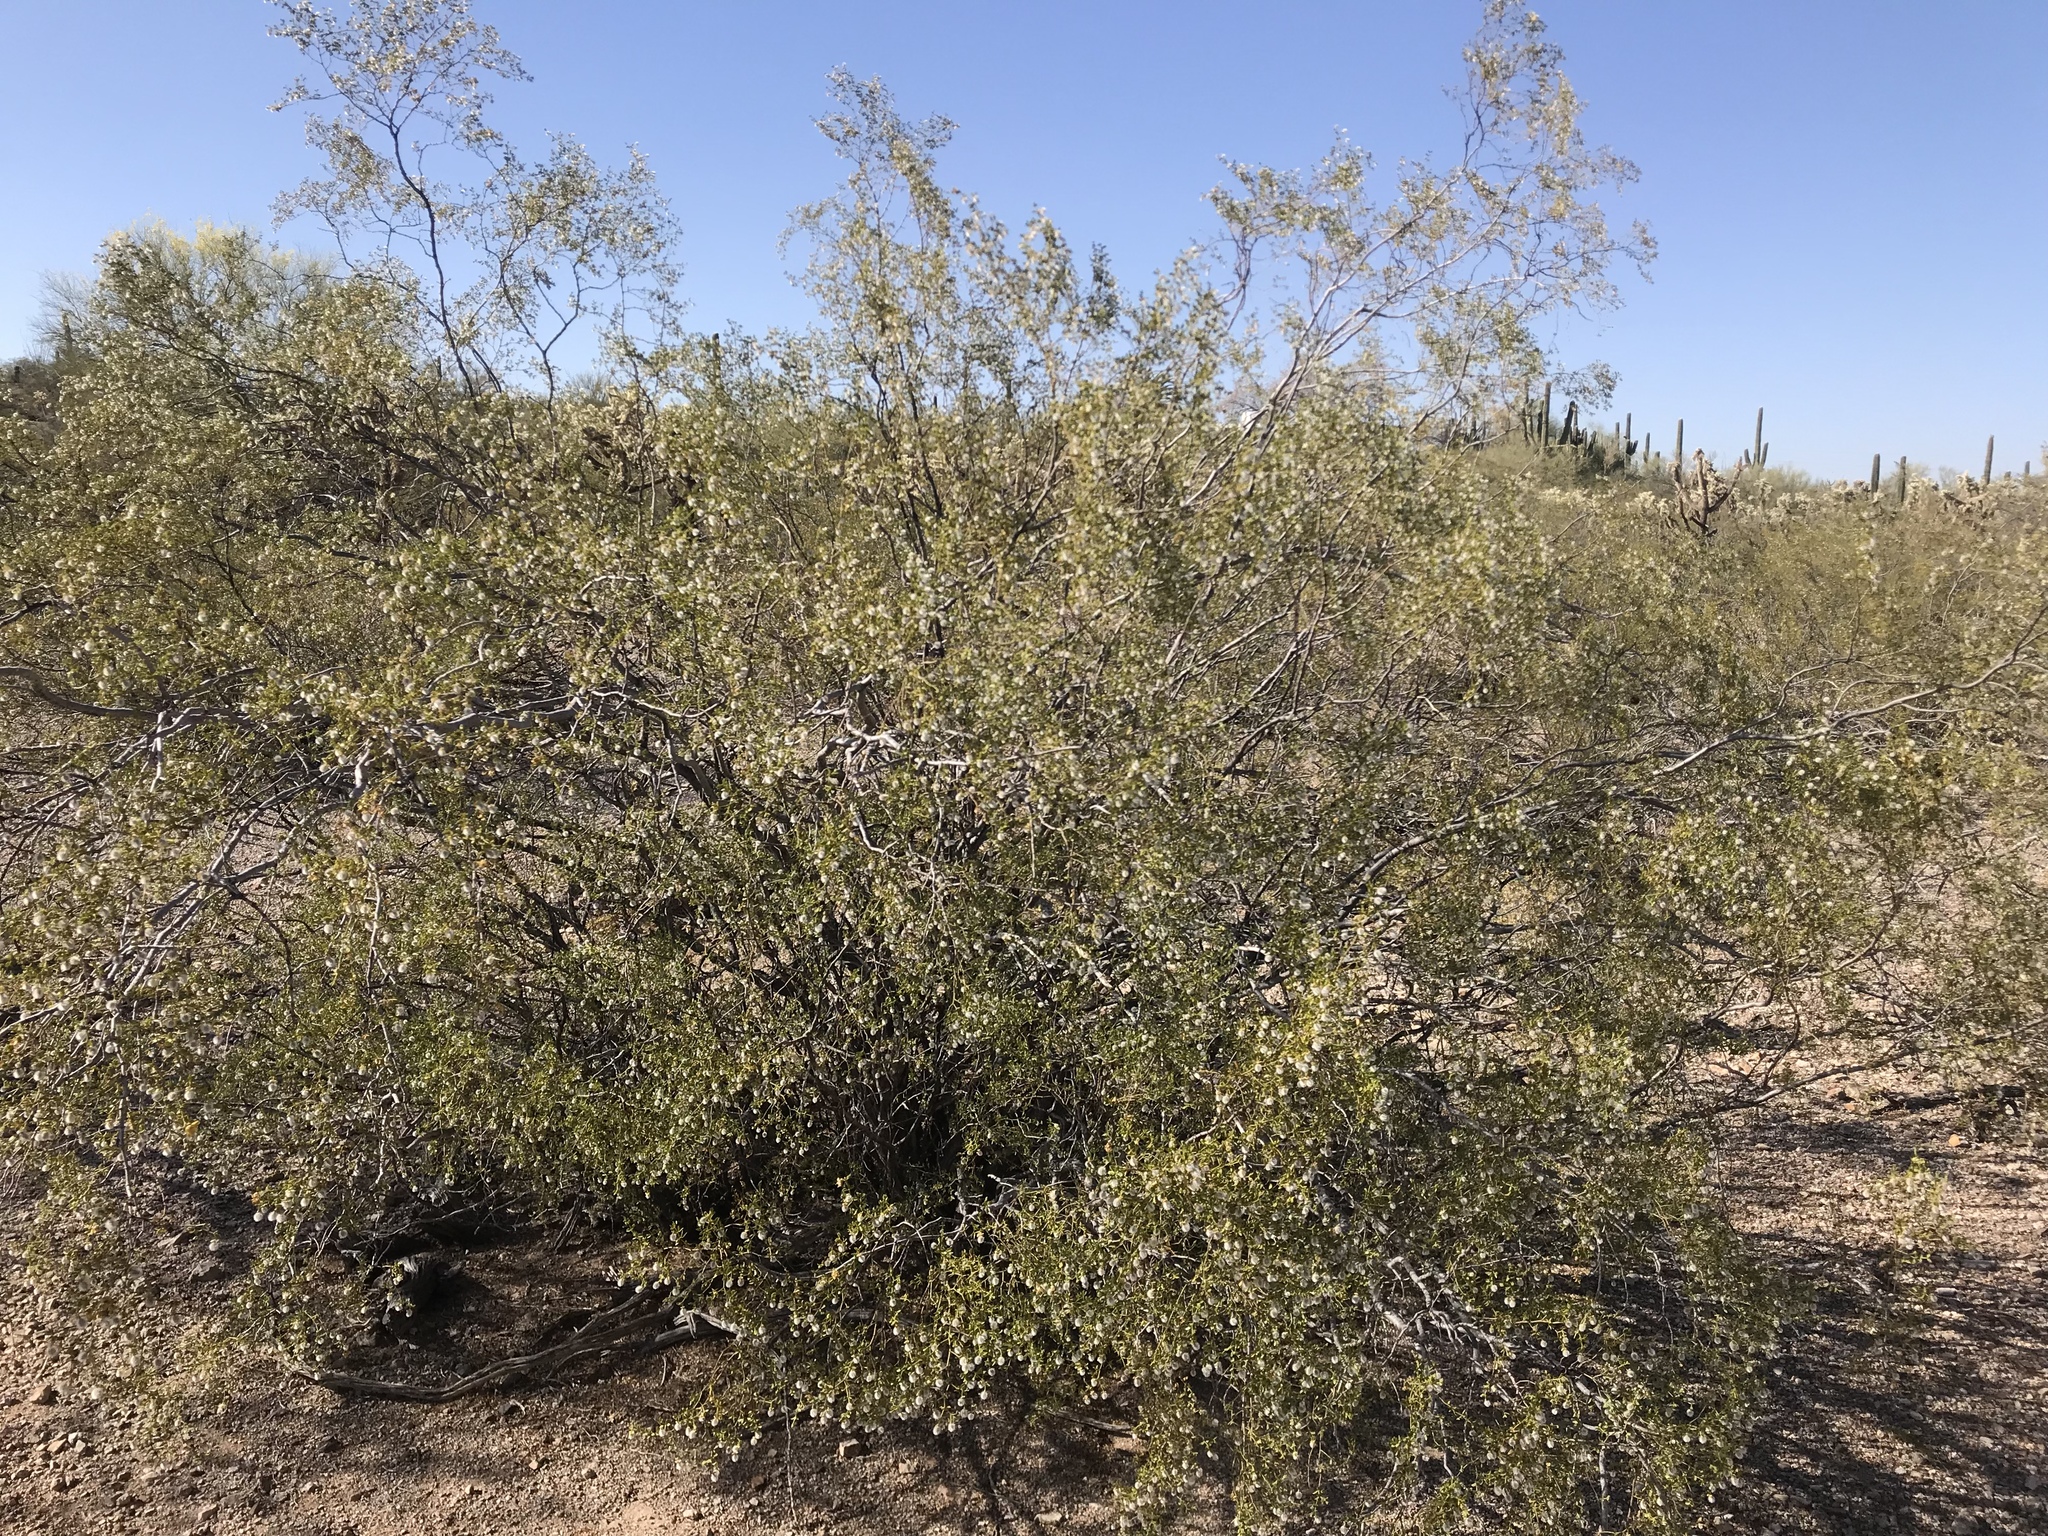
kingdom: Plantae
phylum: Tracheophyta
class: Magnoliopsida
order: Zygophyllales
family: Zygophyllaceae
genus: Larrea
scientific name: Larrea tridentata
